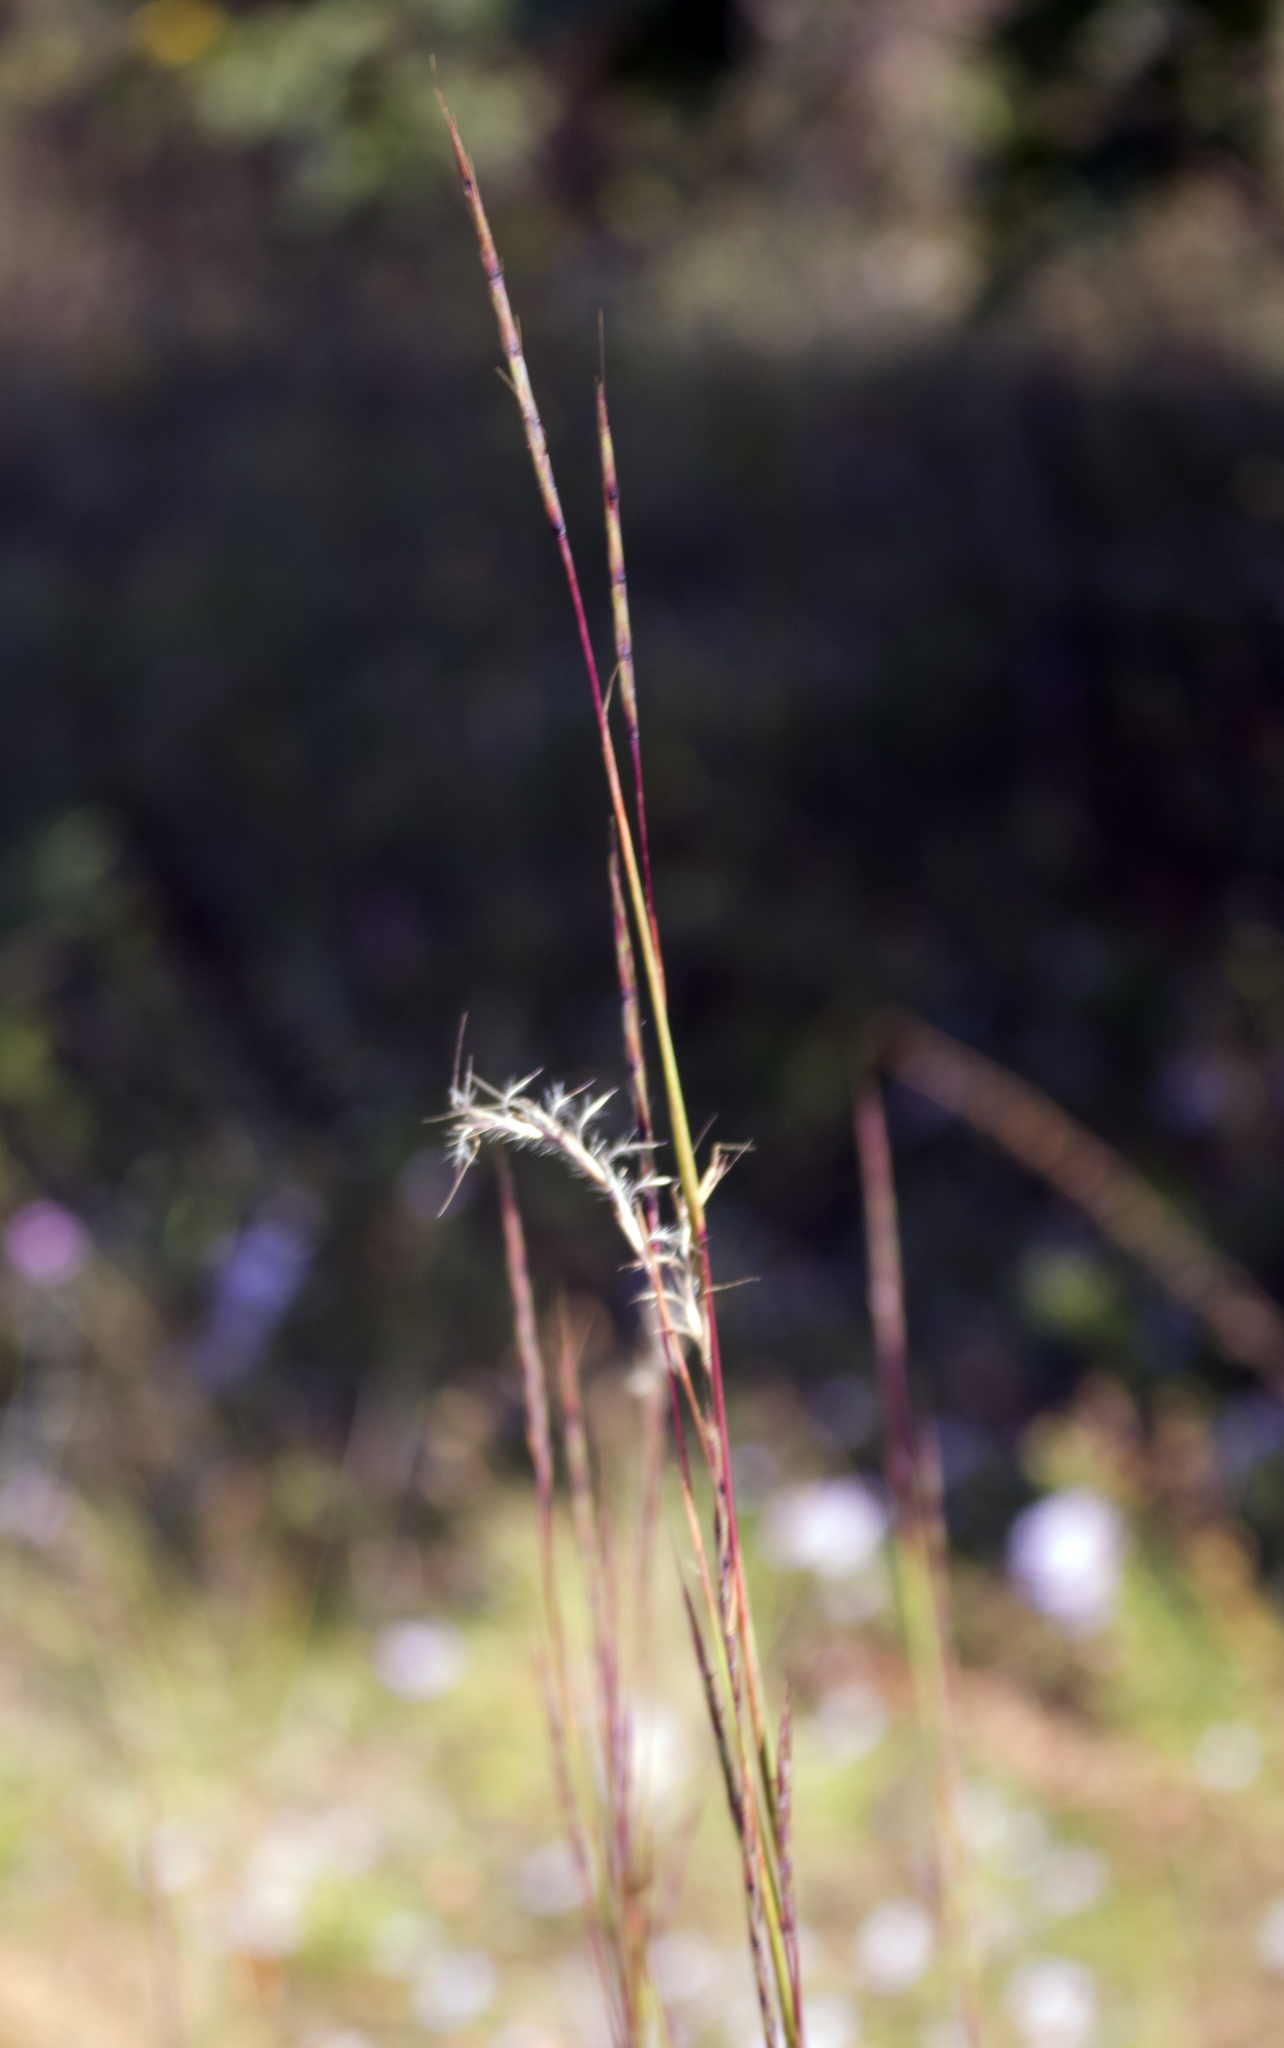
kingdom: Plantae
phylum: Tracheophyta
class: Liliopsida
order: Poales
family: Poaceae
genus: Schizachyrium
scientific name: Schizachyrium scoparium
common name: Little bluestem
